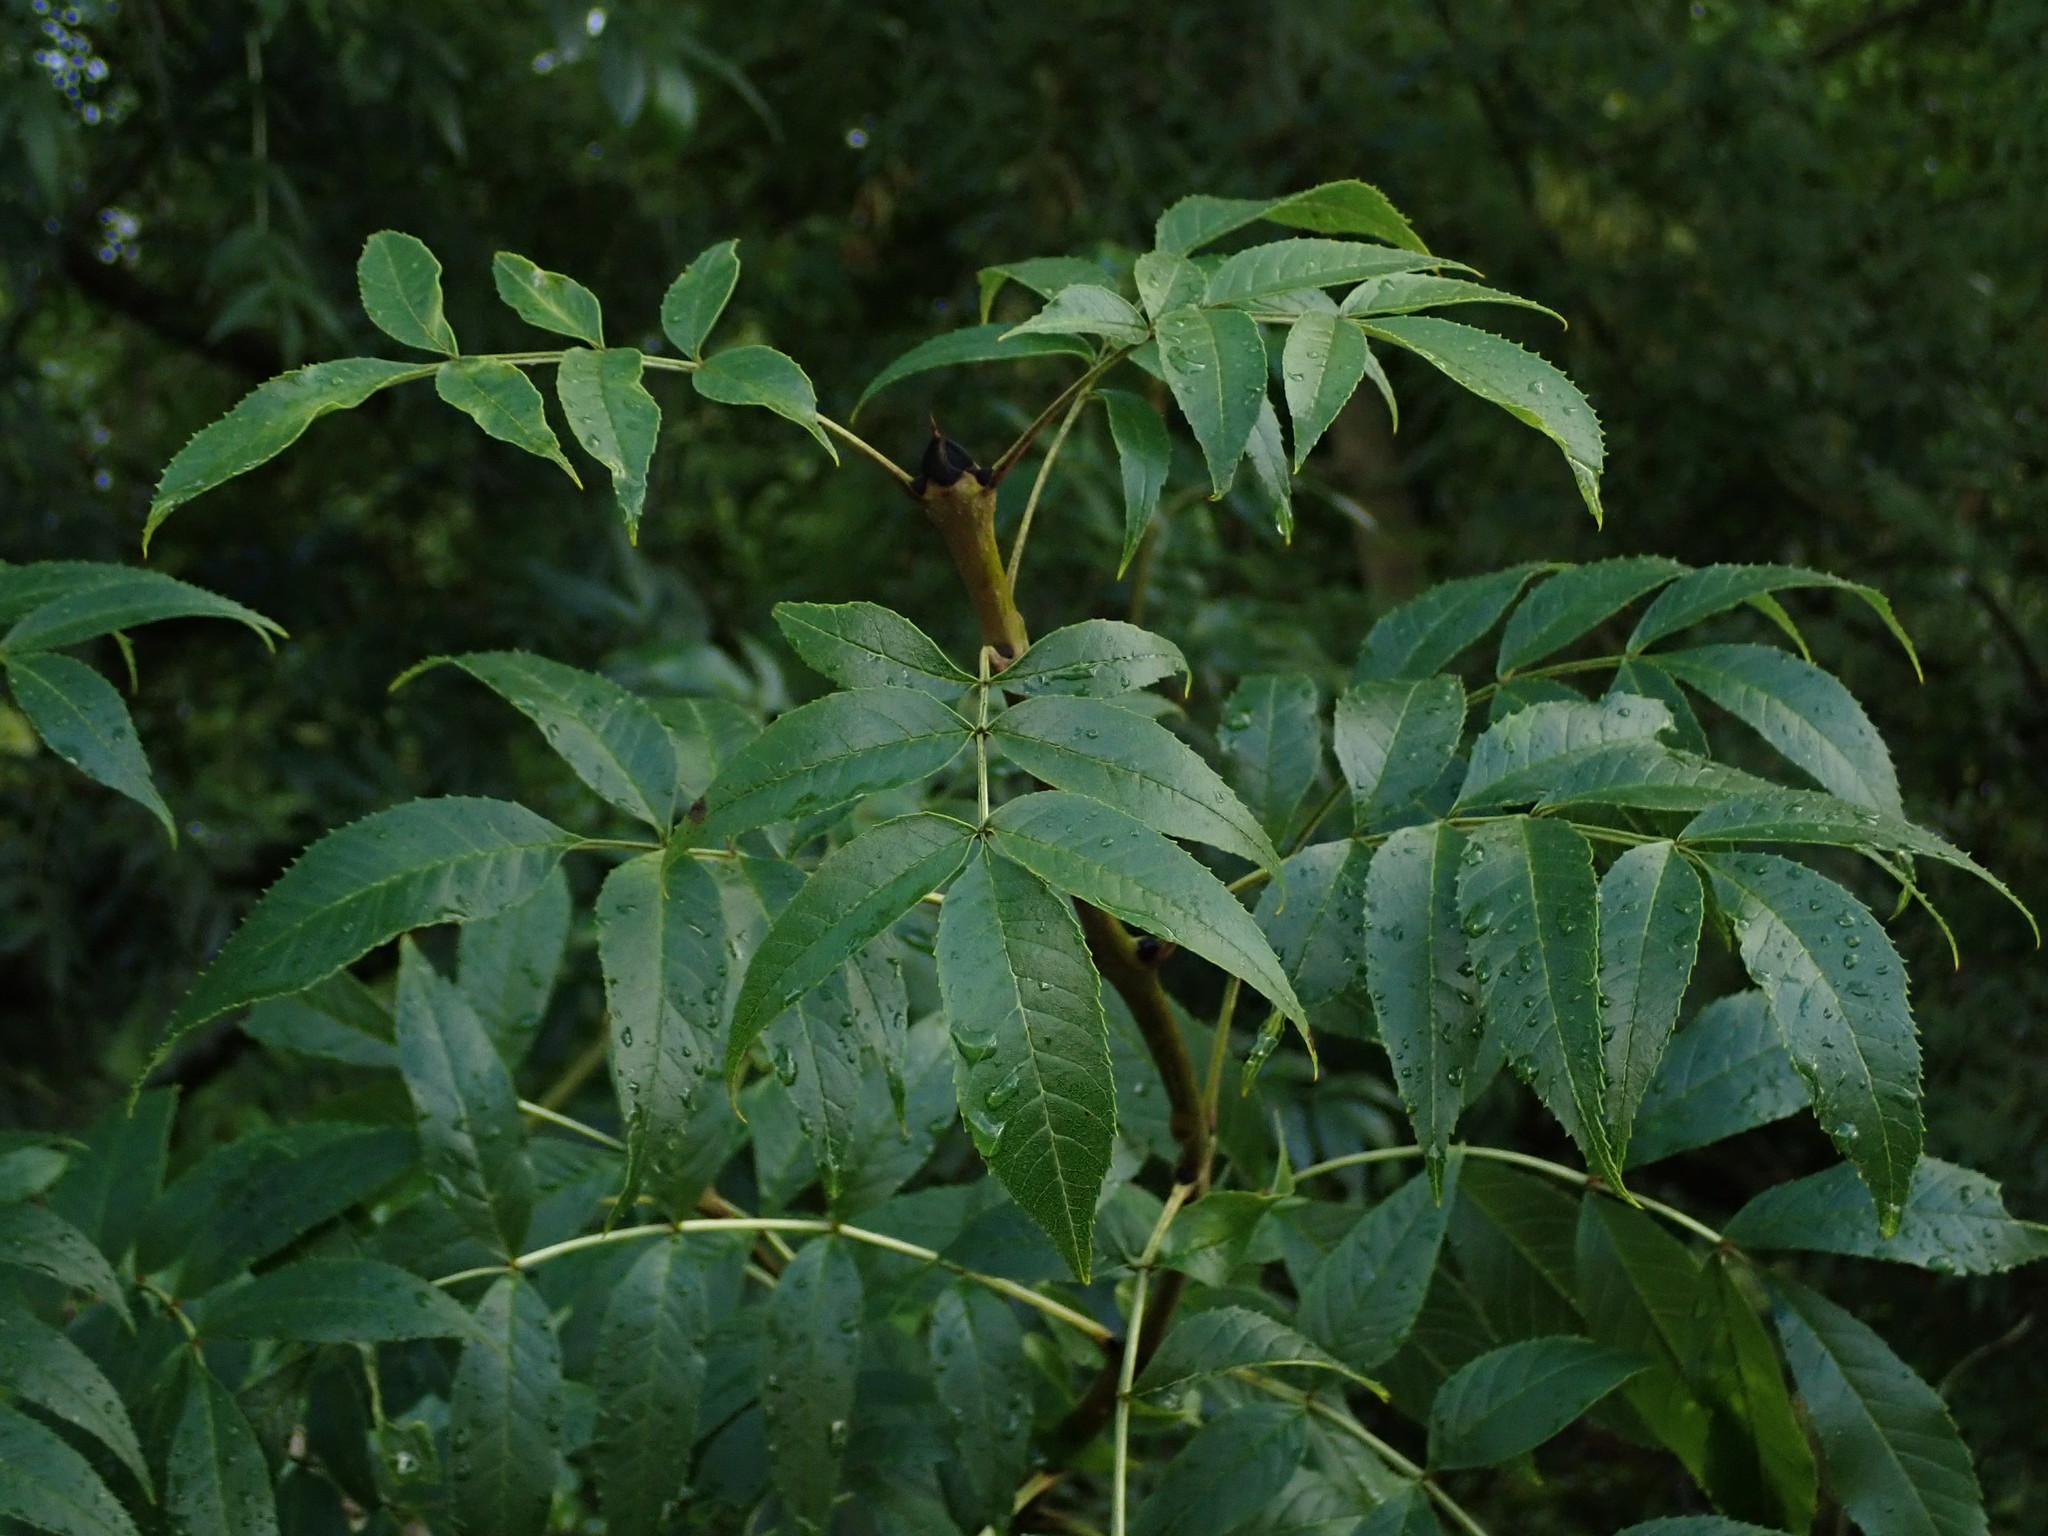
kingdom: Plantae
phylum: Tracheophyta
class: Magnoliopsida
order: Lamiales
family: Oleaceae
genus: Fraxinus
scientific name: Fraxinus excelsior
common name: European ash
